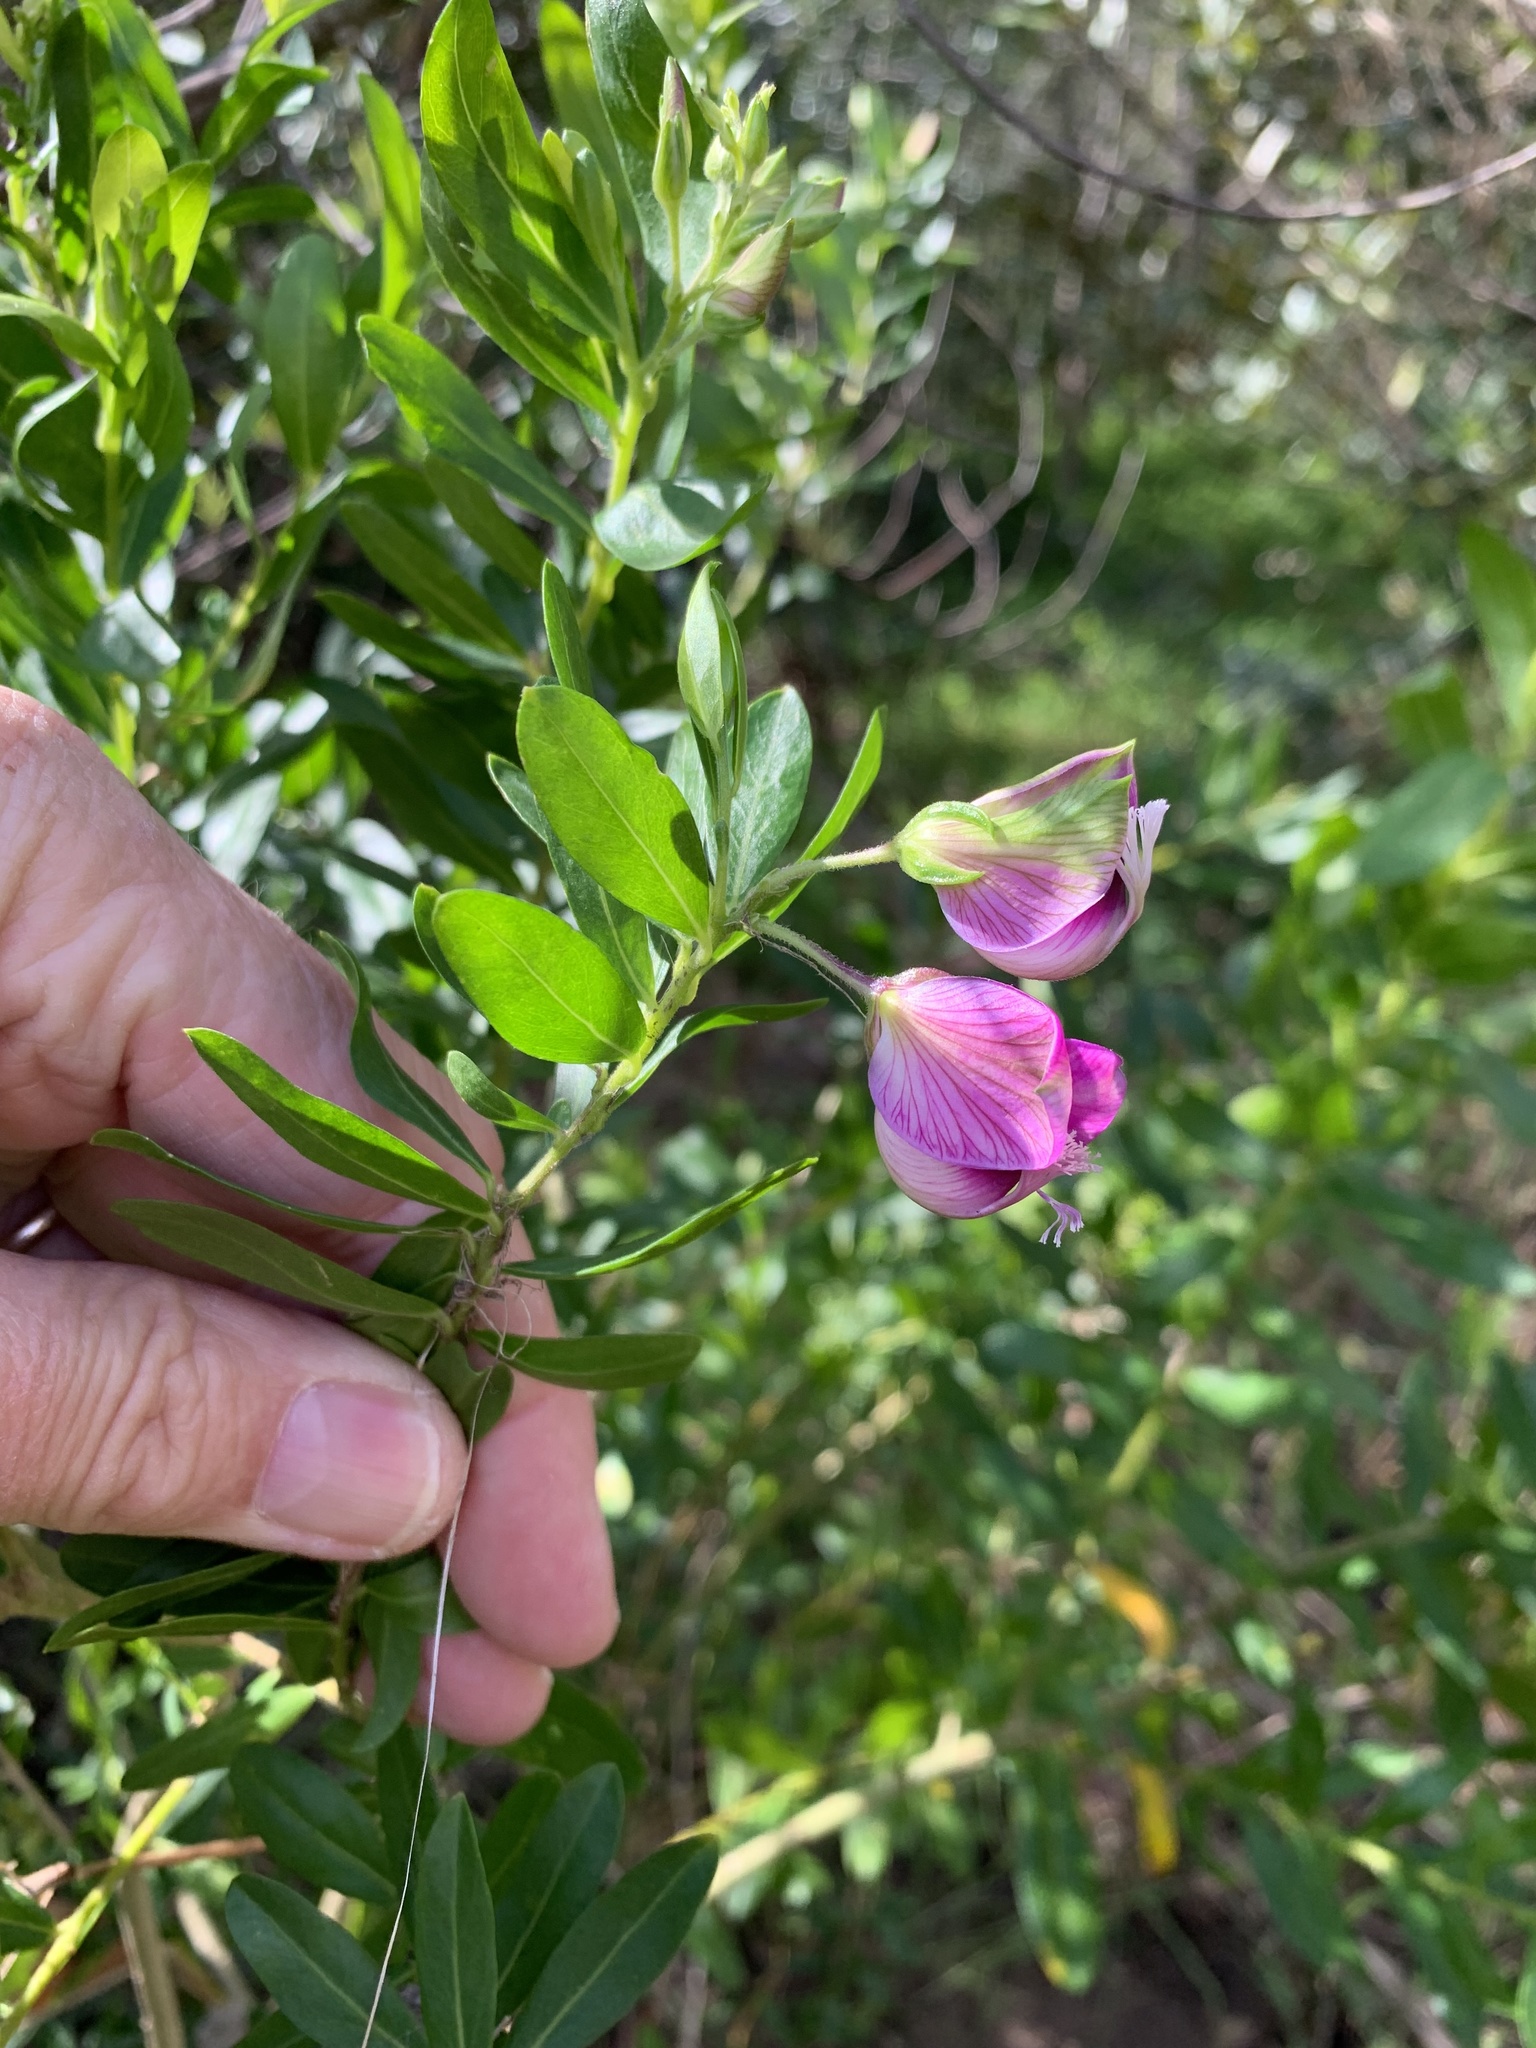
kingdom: Plantae
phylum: Tracheophyta
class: Magnoliopsida
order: Fabales
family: Polygalaceae
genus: Polygala
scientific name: Polygala myrtifolia
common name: Myrtle-leaf milkwort
